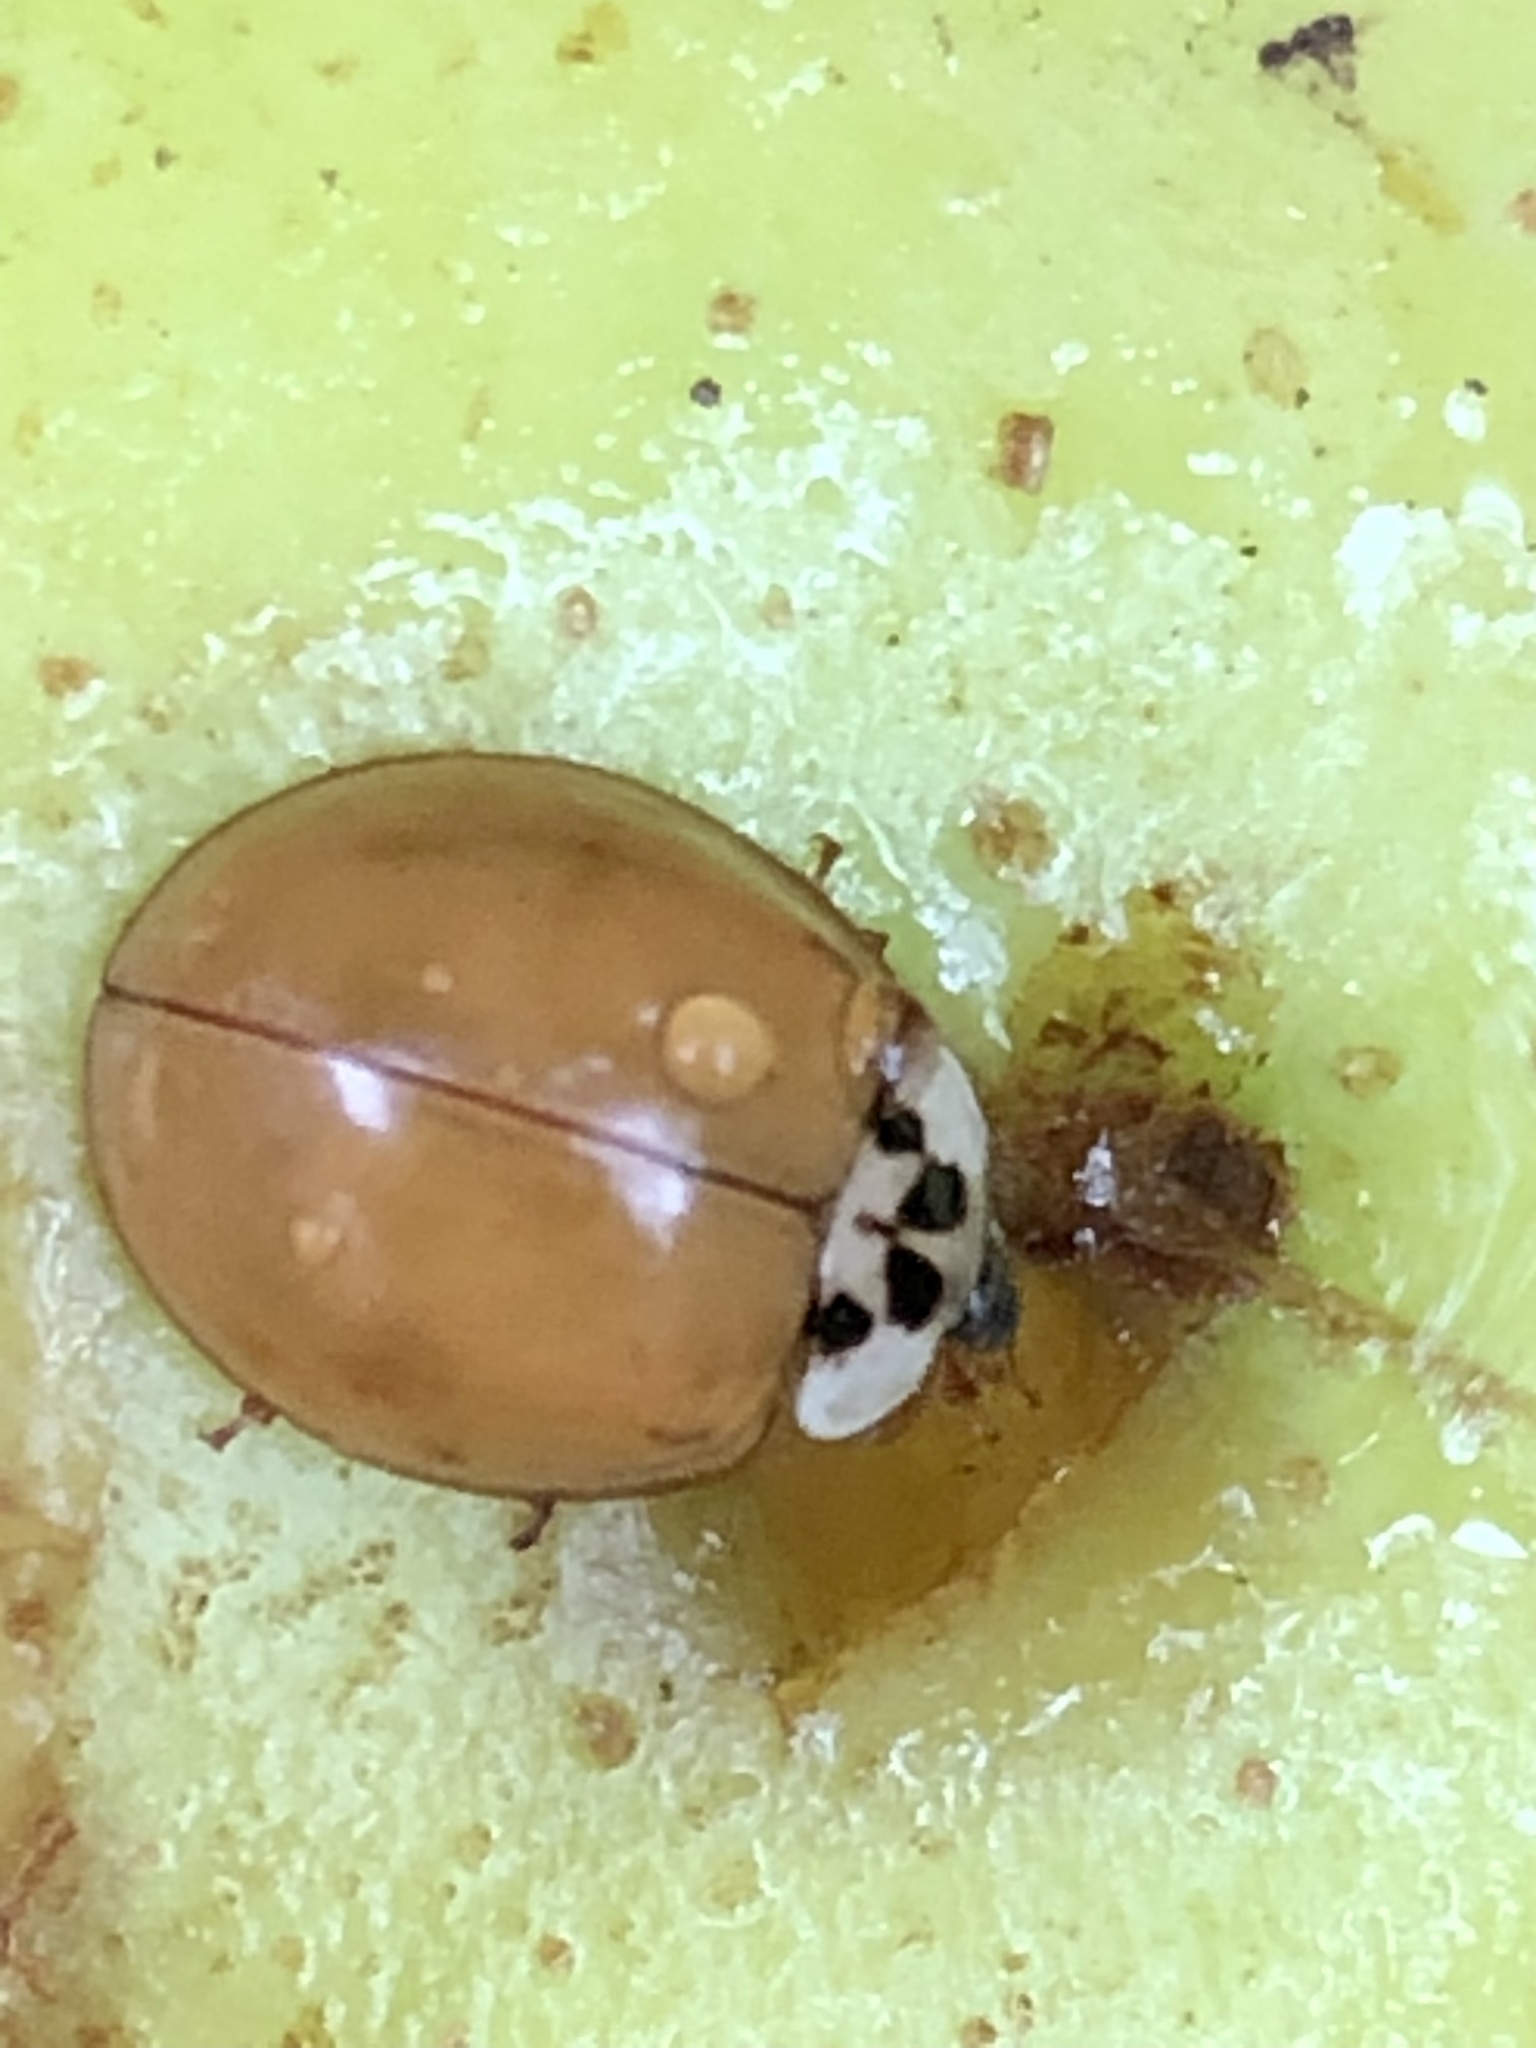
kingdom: Animalia
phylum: Arthropoda
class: Insecta
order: Coleoptera
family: Coccinellidae
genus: Harmonia
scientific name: Harmonia axyridis
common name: Harlequin ladybird
